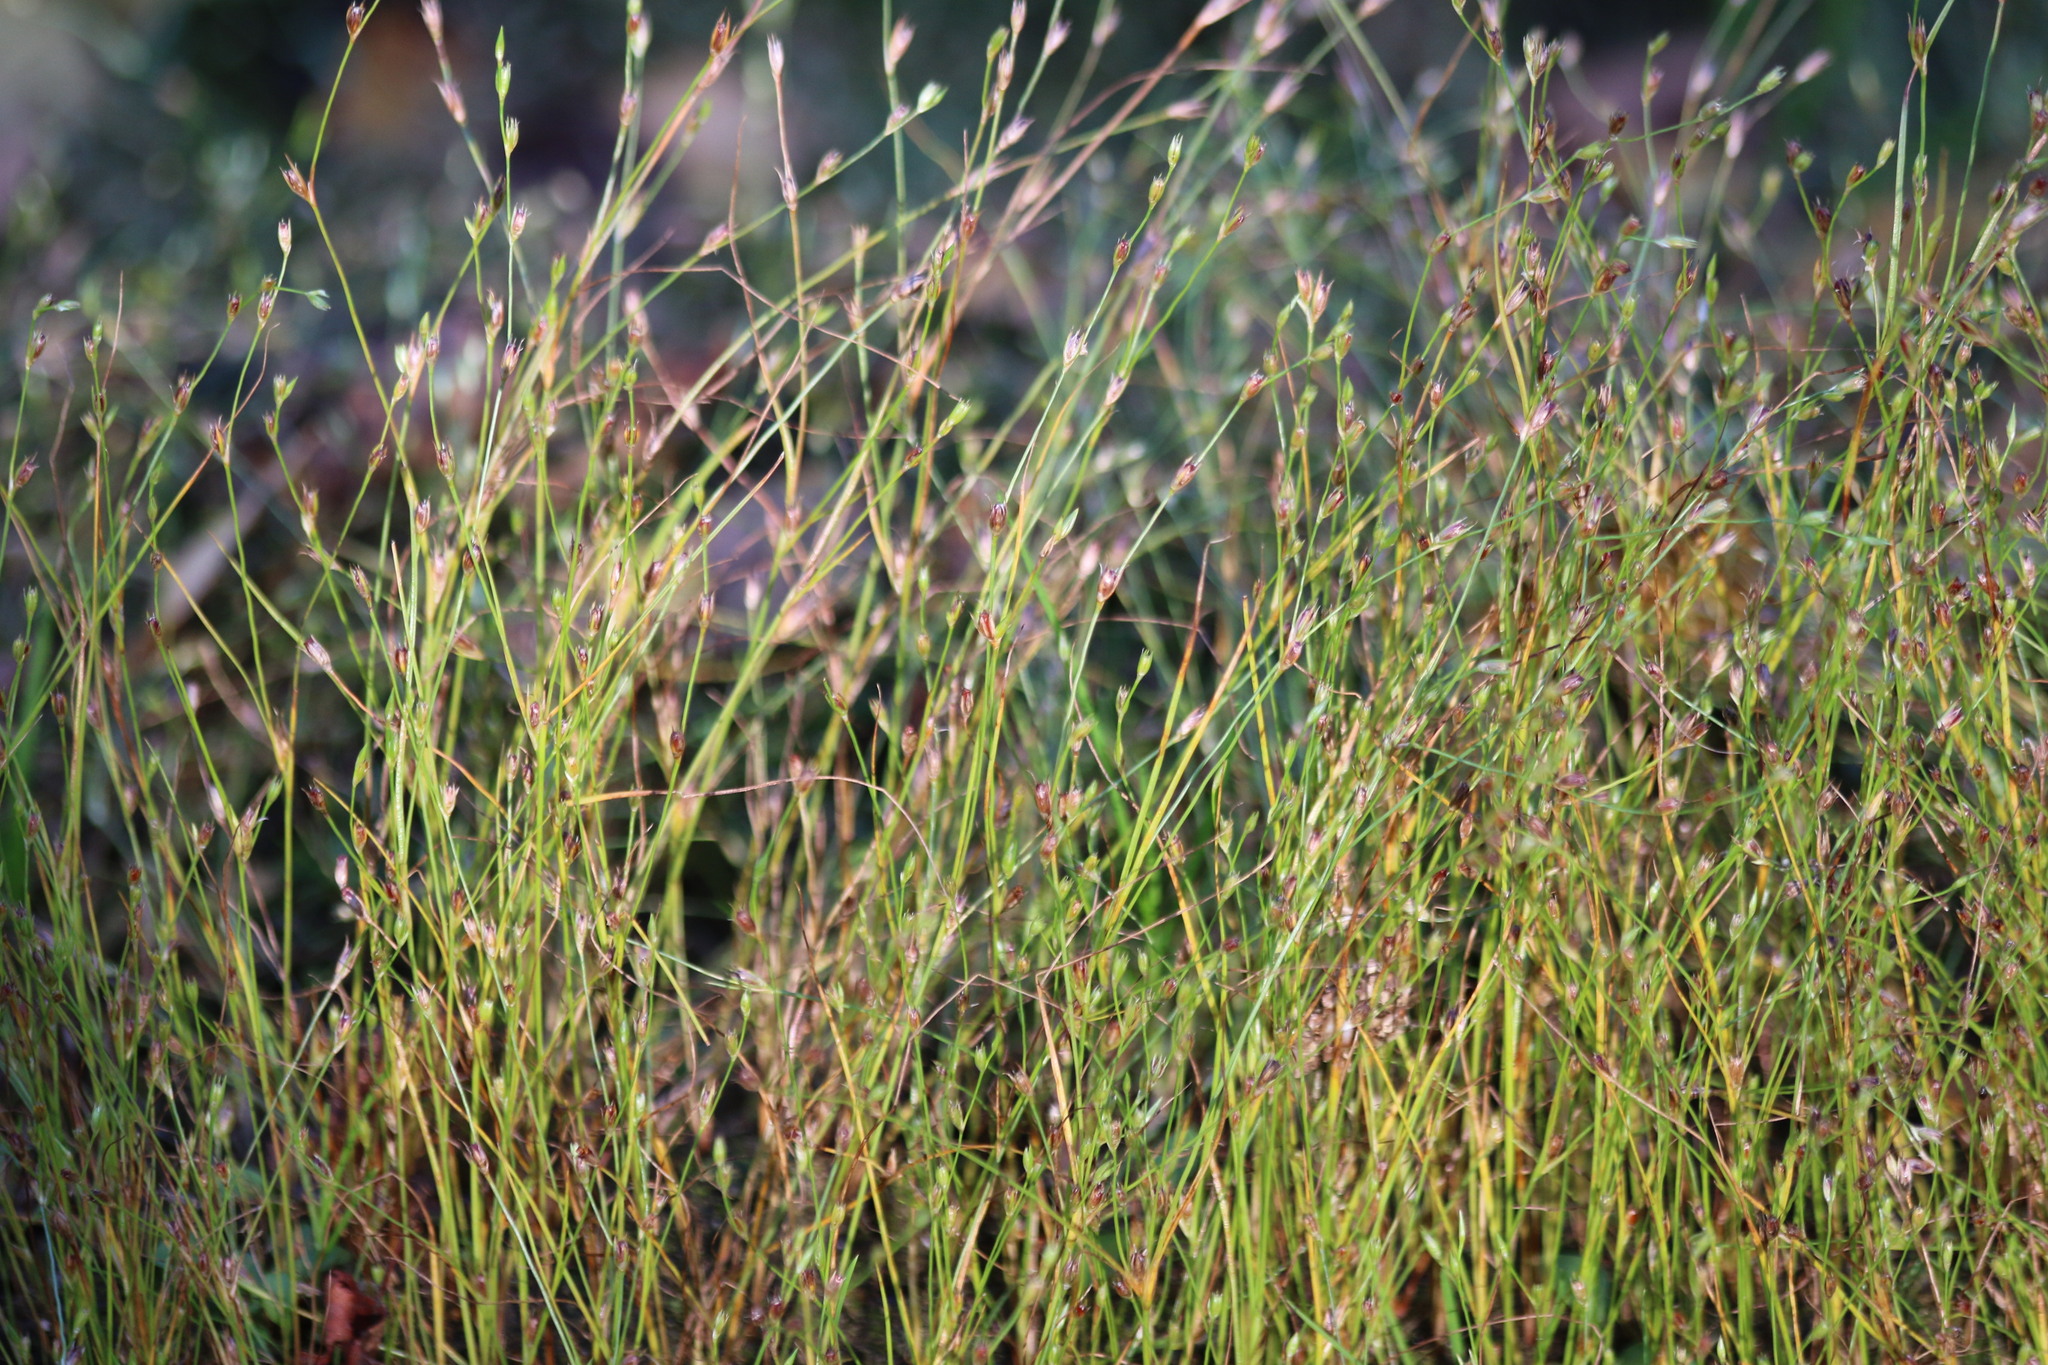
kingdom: Plantae
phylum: Tracheophyta
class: Liliopsida
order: Poales
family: Juncaceae
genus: Juncus
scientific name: Juncus bufonius
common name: Toad rush
